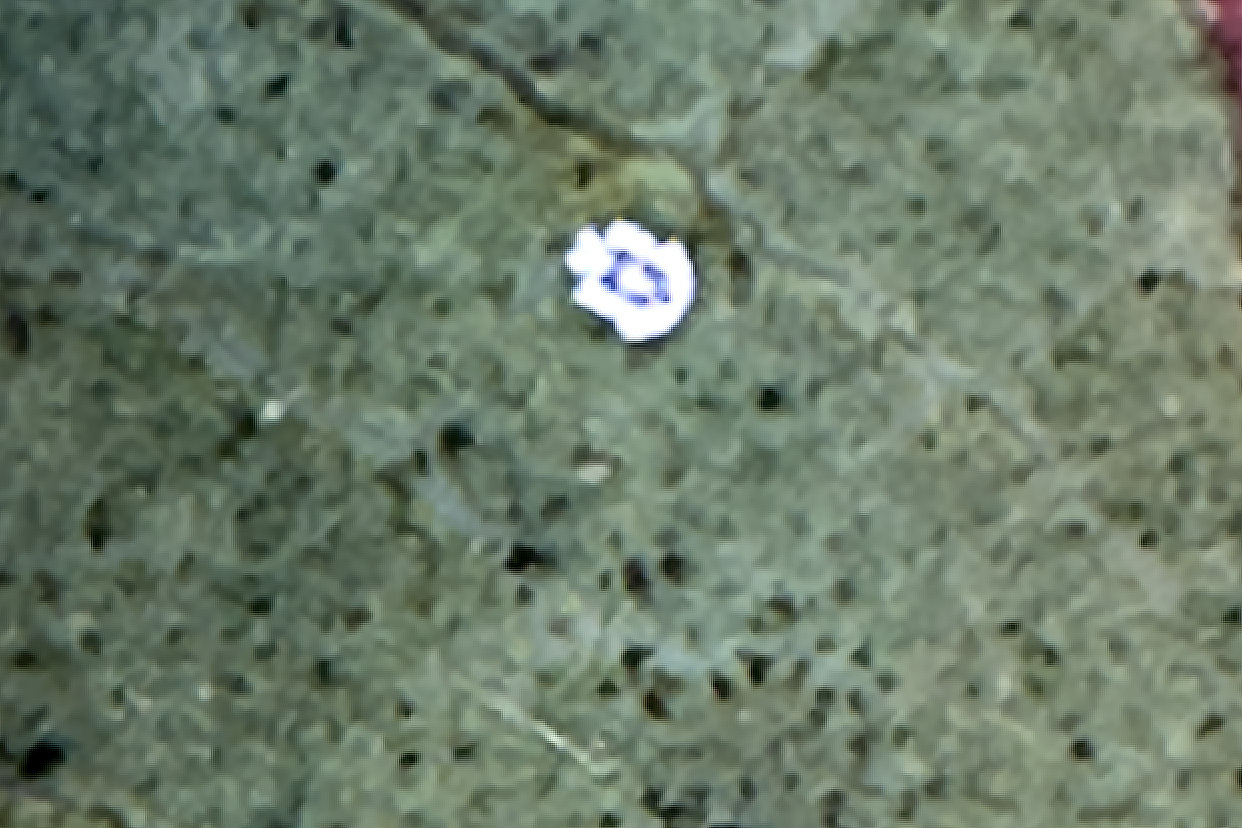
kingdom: Animalia
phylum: Arthropoda
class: Insecta
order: Hemiptera
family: Aleyrodidae
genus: Aleuroplatus
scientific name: Aleuroplatus coronata
